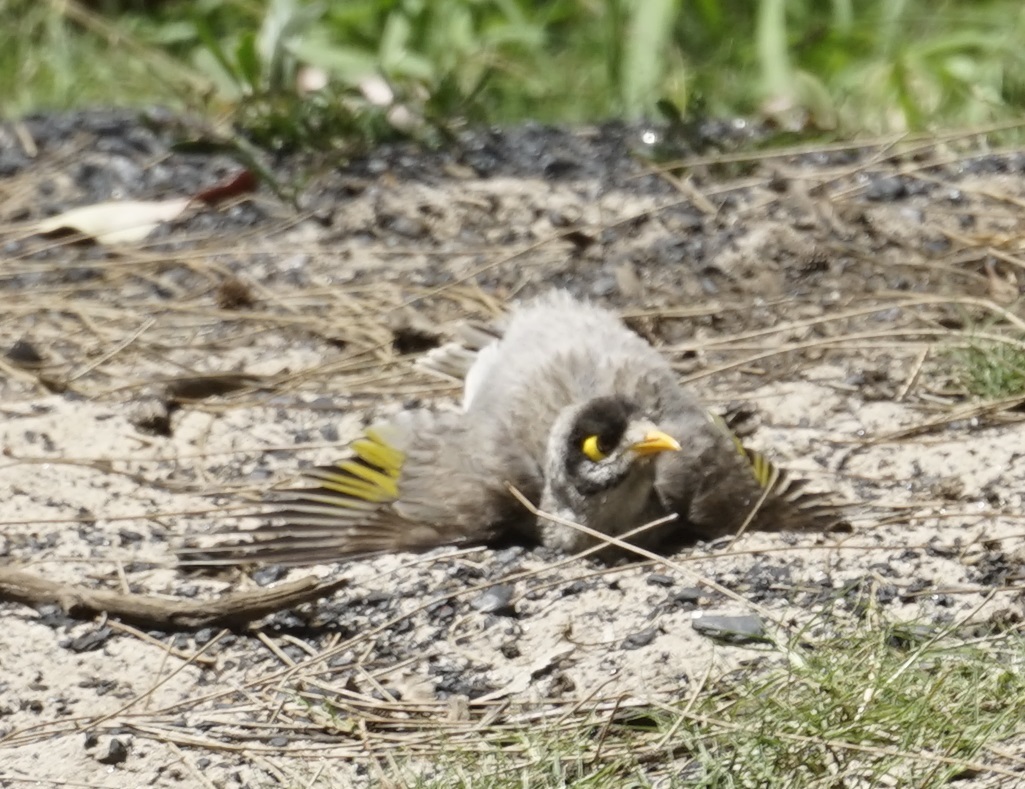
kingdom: Animalia
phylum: Chordata
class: Aves
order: Passeriformes
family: Meliphagidae
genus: Manorina
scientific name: Manorina melanocephala
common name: Noisy miner
